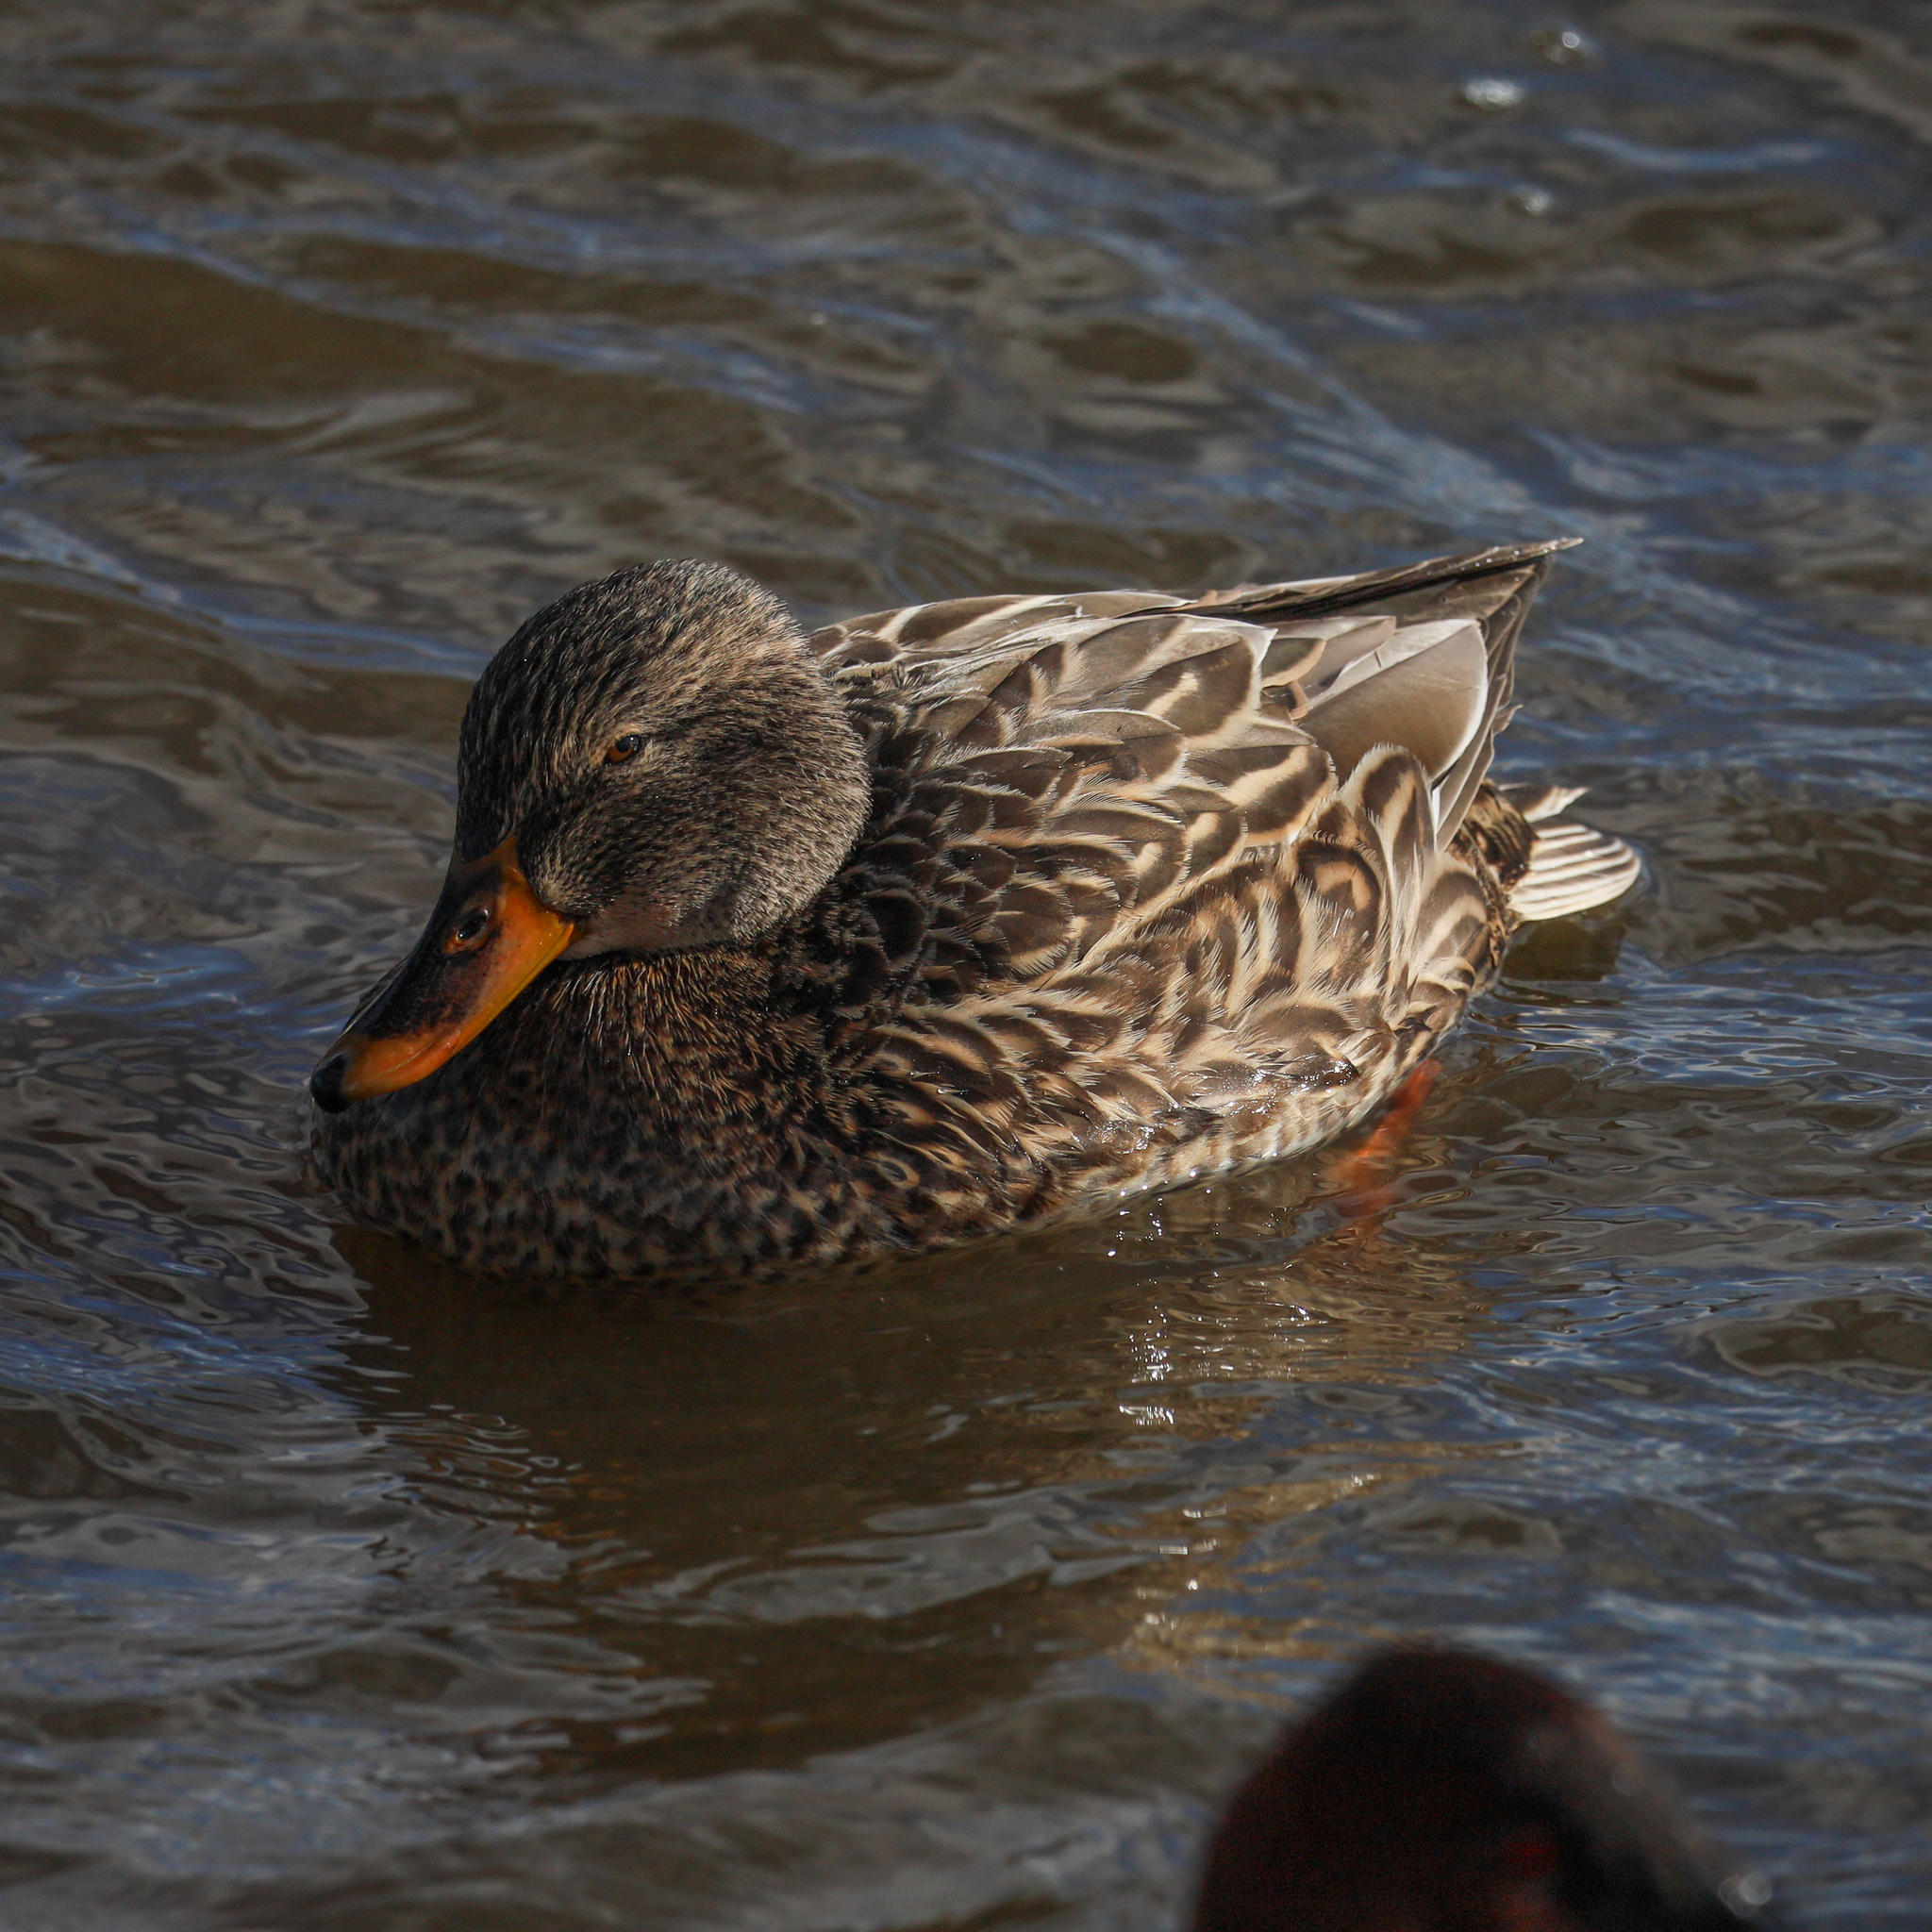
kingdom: Animalia
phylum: Chordata
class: Aves
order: Anseriformes
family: Anatidae
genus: Anas
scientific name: Anas platyrhynchos
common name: Mallard
